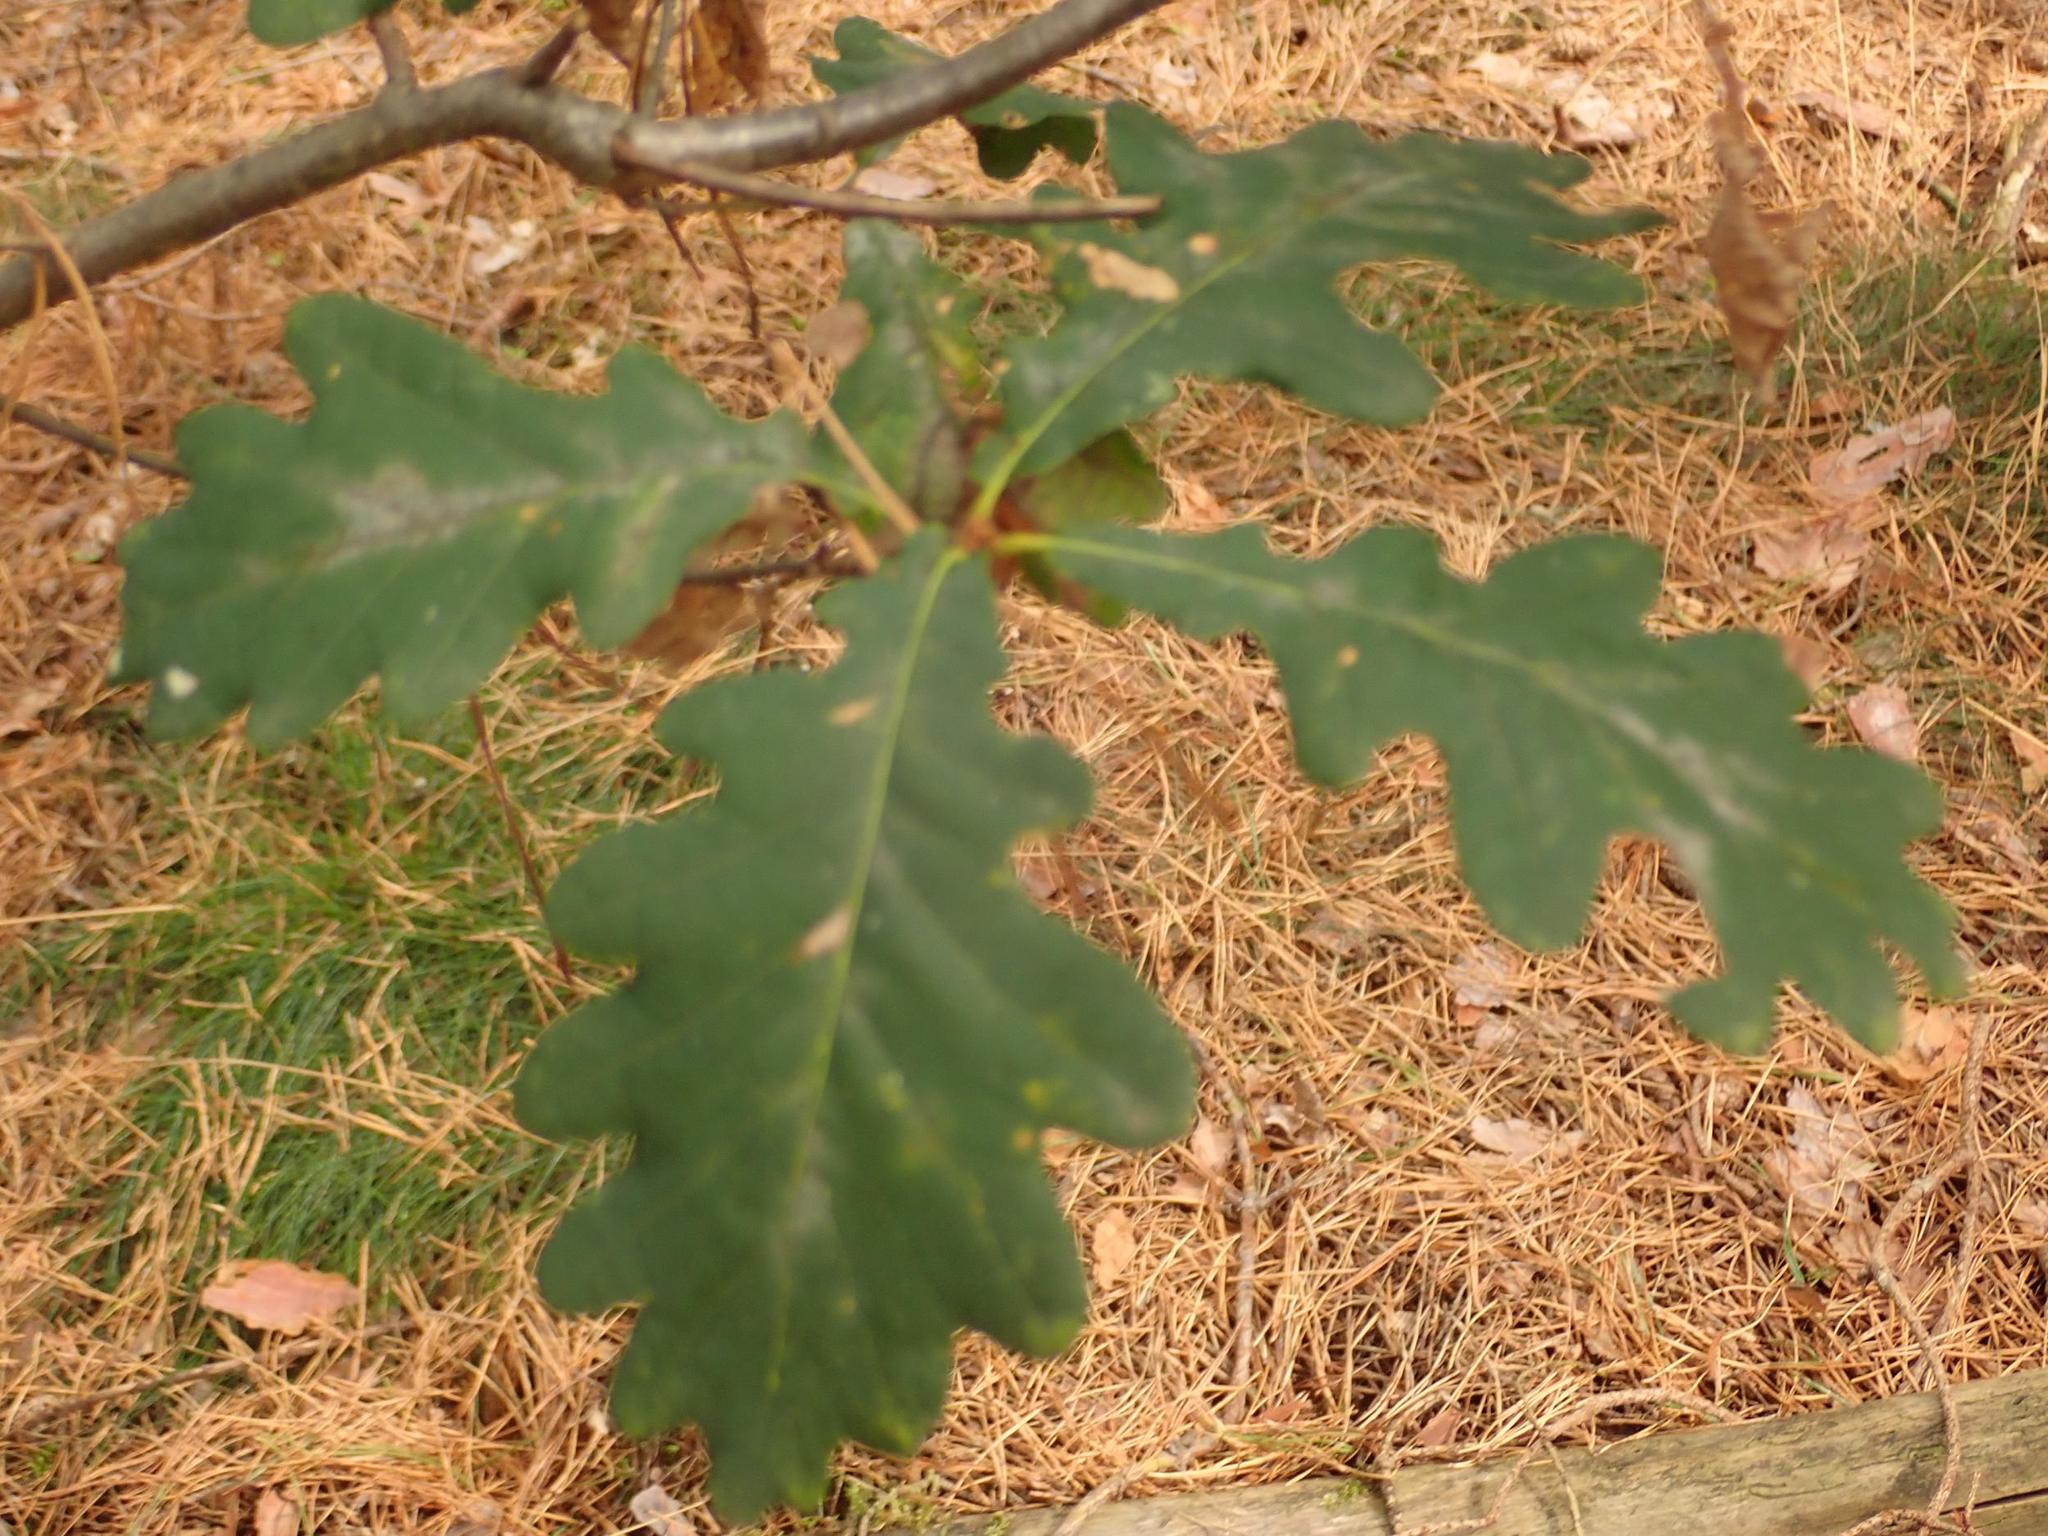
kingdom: Plantae
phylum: Tracheophyta
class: Magnoliopsida
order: Fagales
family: Fagaceae
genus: Quercus
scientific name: Quercus robur
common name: Pedunculate oak
